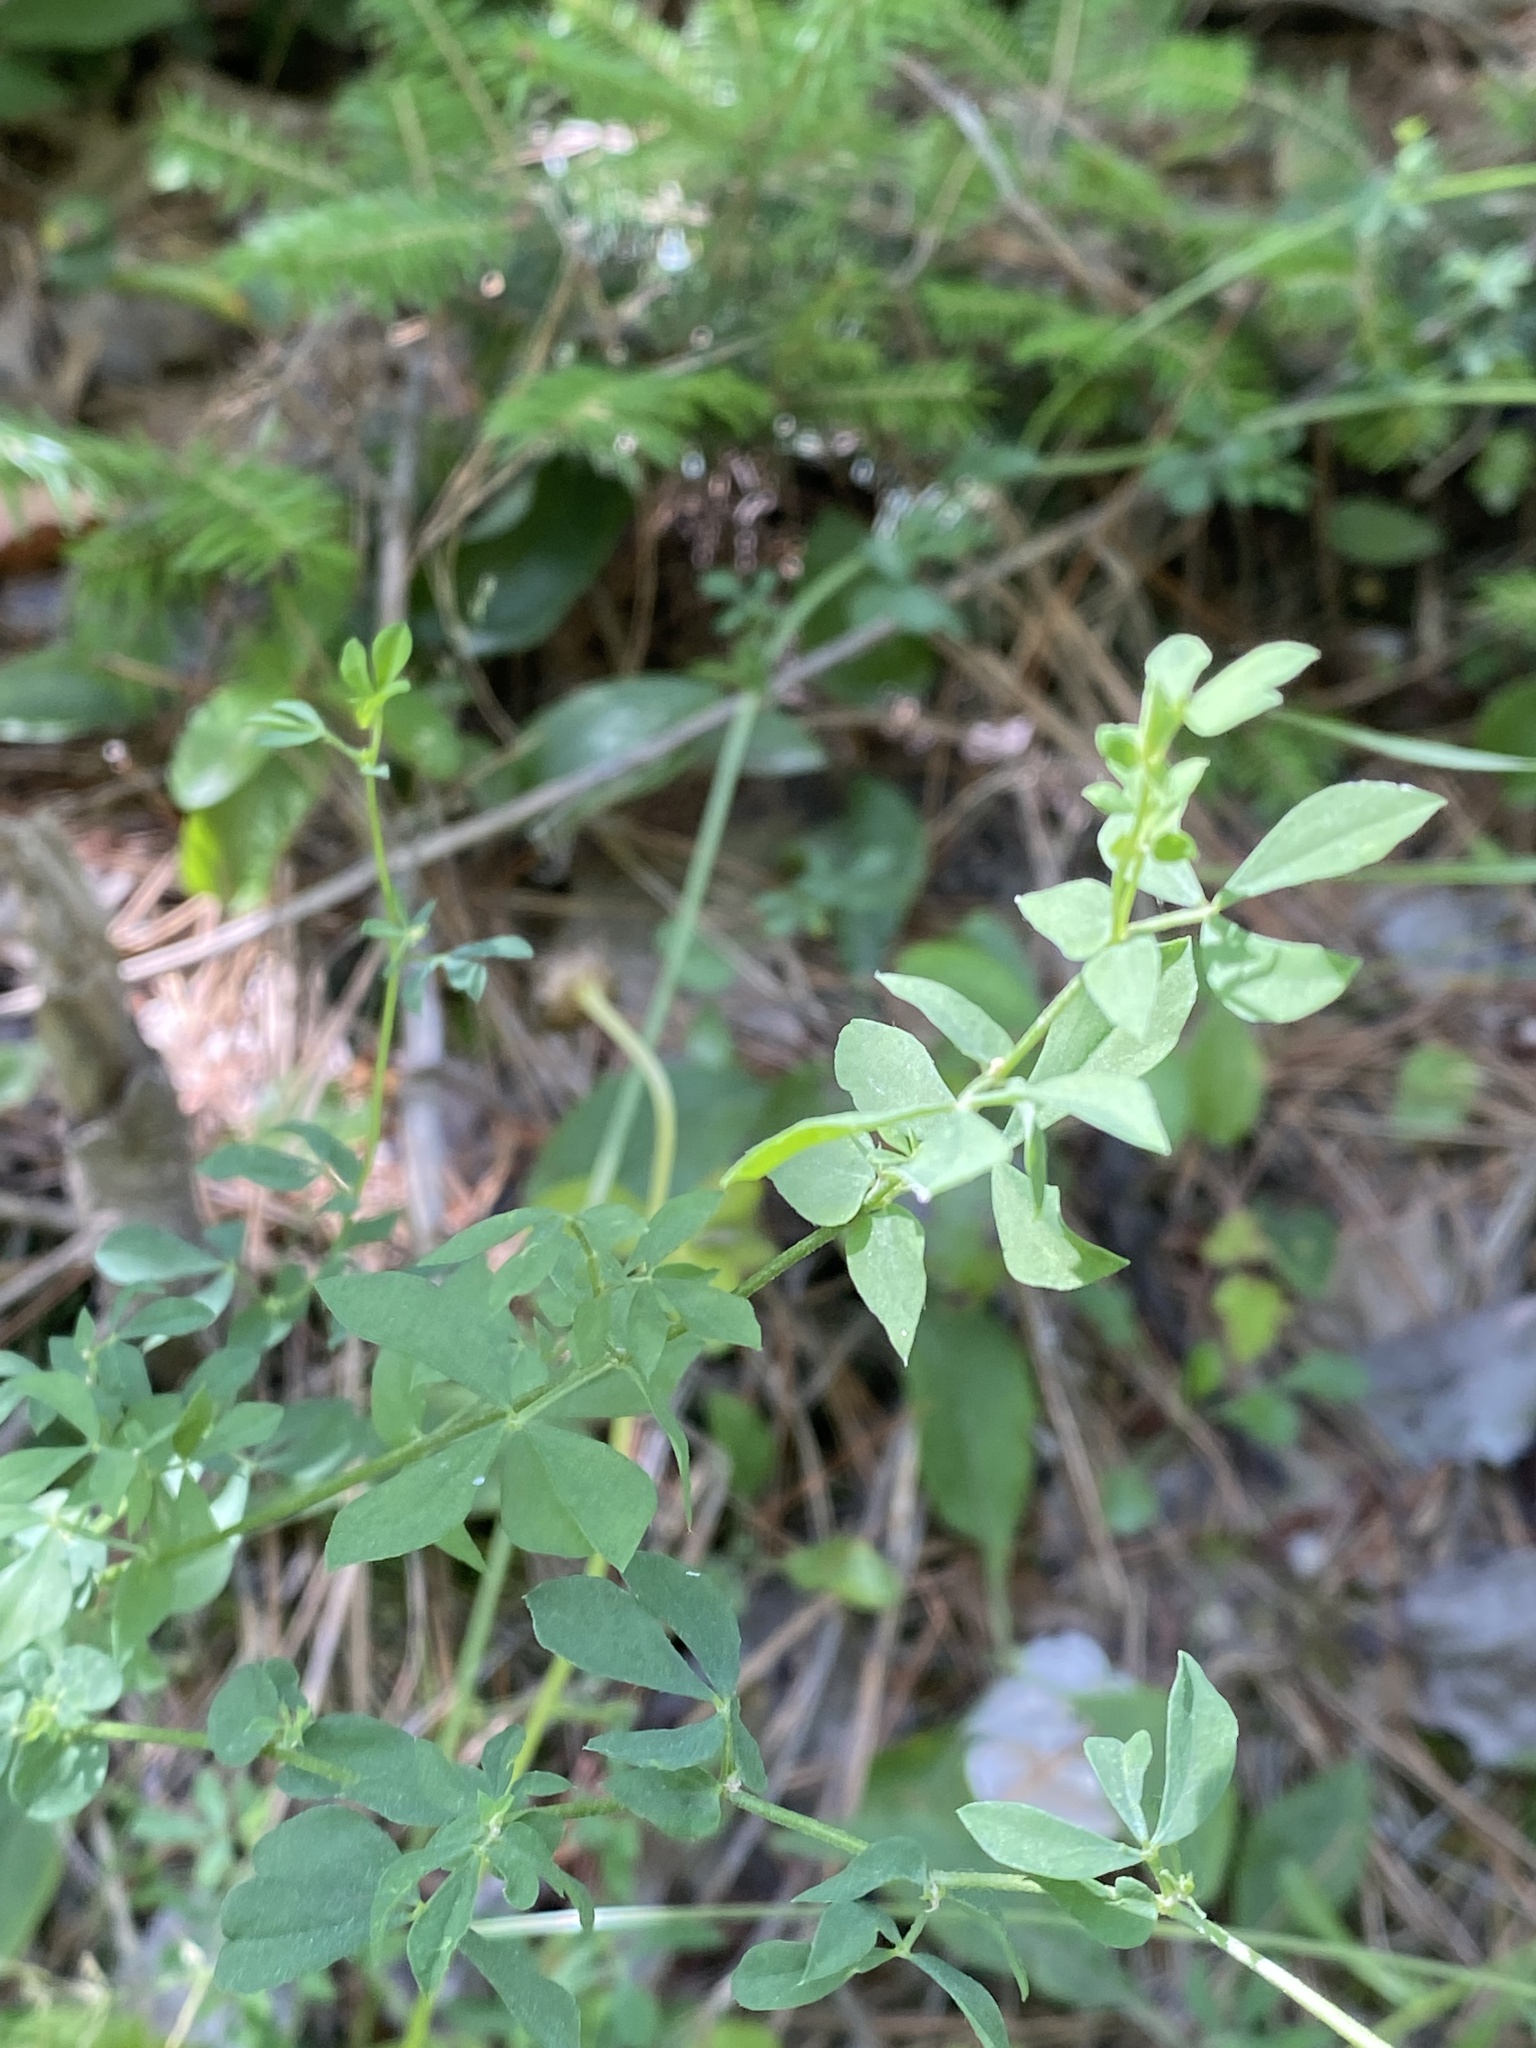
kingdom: Plantae
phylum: Tracheophyta
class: Magnoliopsida
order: Fabales
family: Fabaceae
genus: Lotus
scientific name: Lotus corniculatus
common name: Common bird's-foot-trefoil
